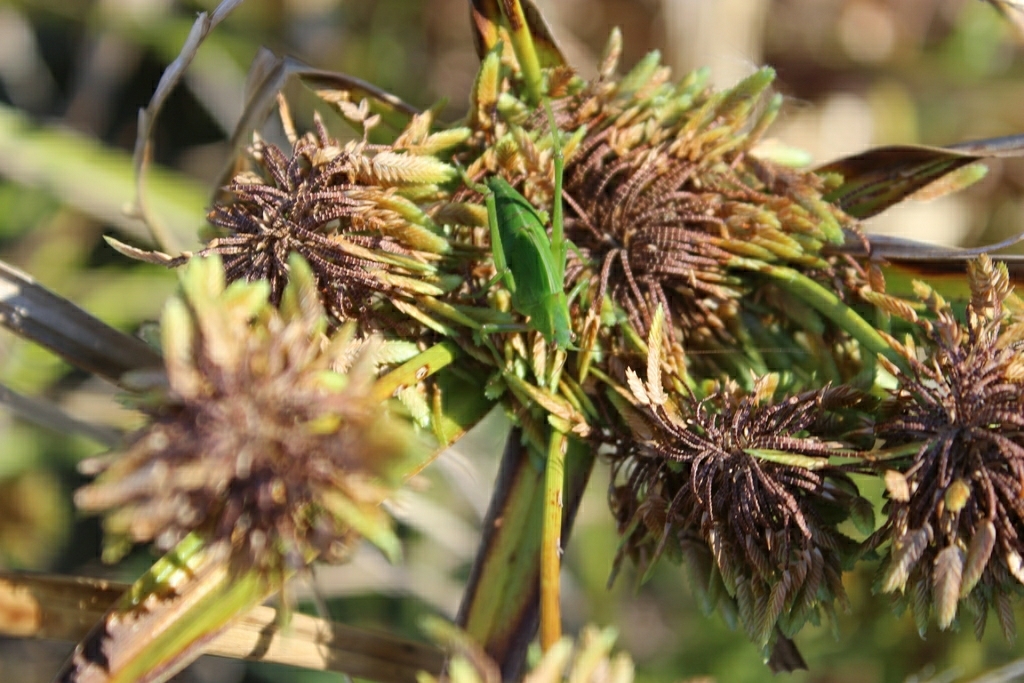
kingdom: Animalia
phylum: Arthropoda
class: Insecta
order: Orthoptera
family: Tettigoniidae
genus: Caedicia
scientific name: Caedicia simplex
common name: Common garden katydid
